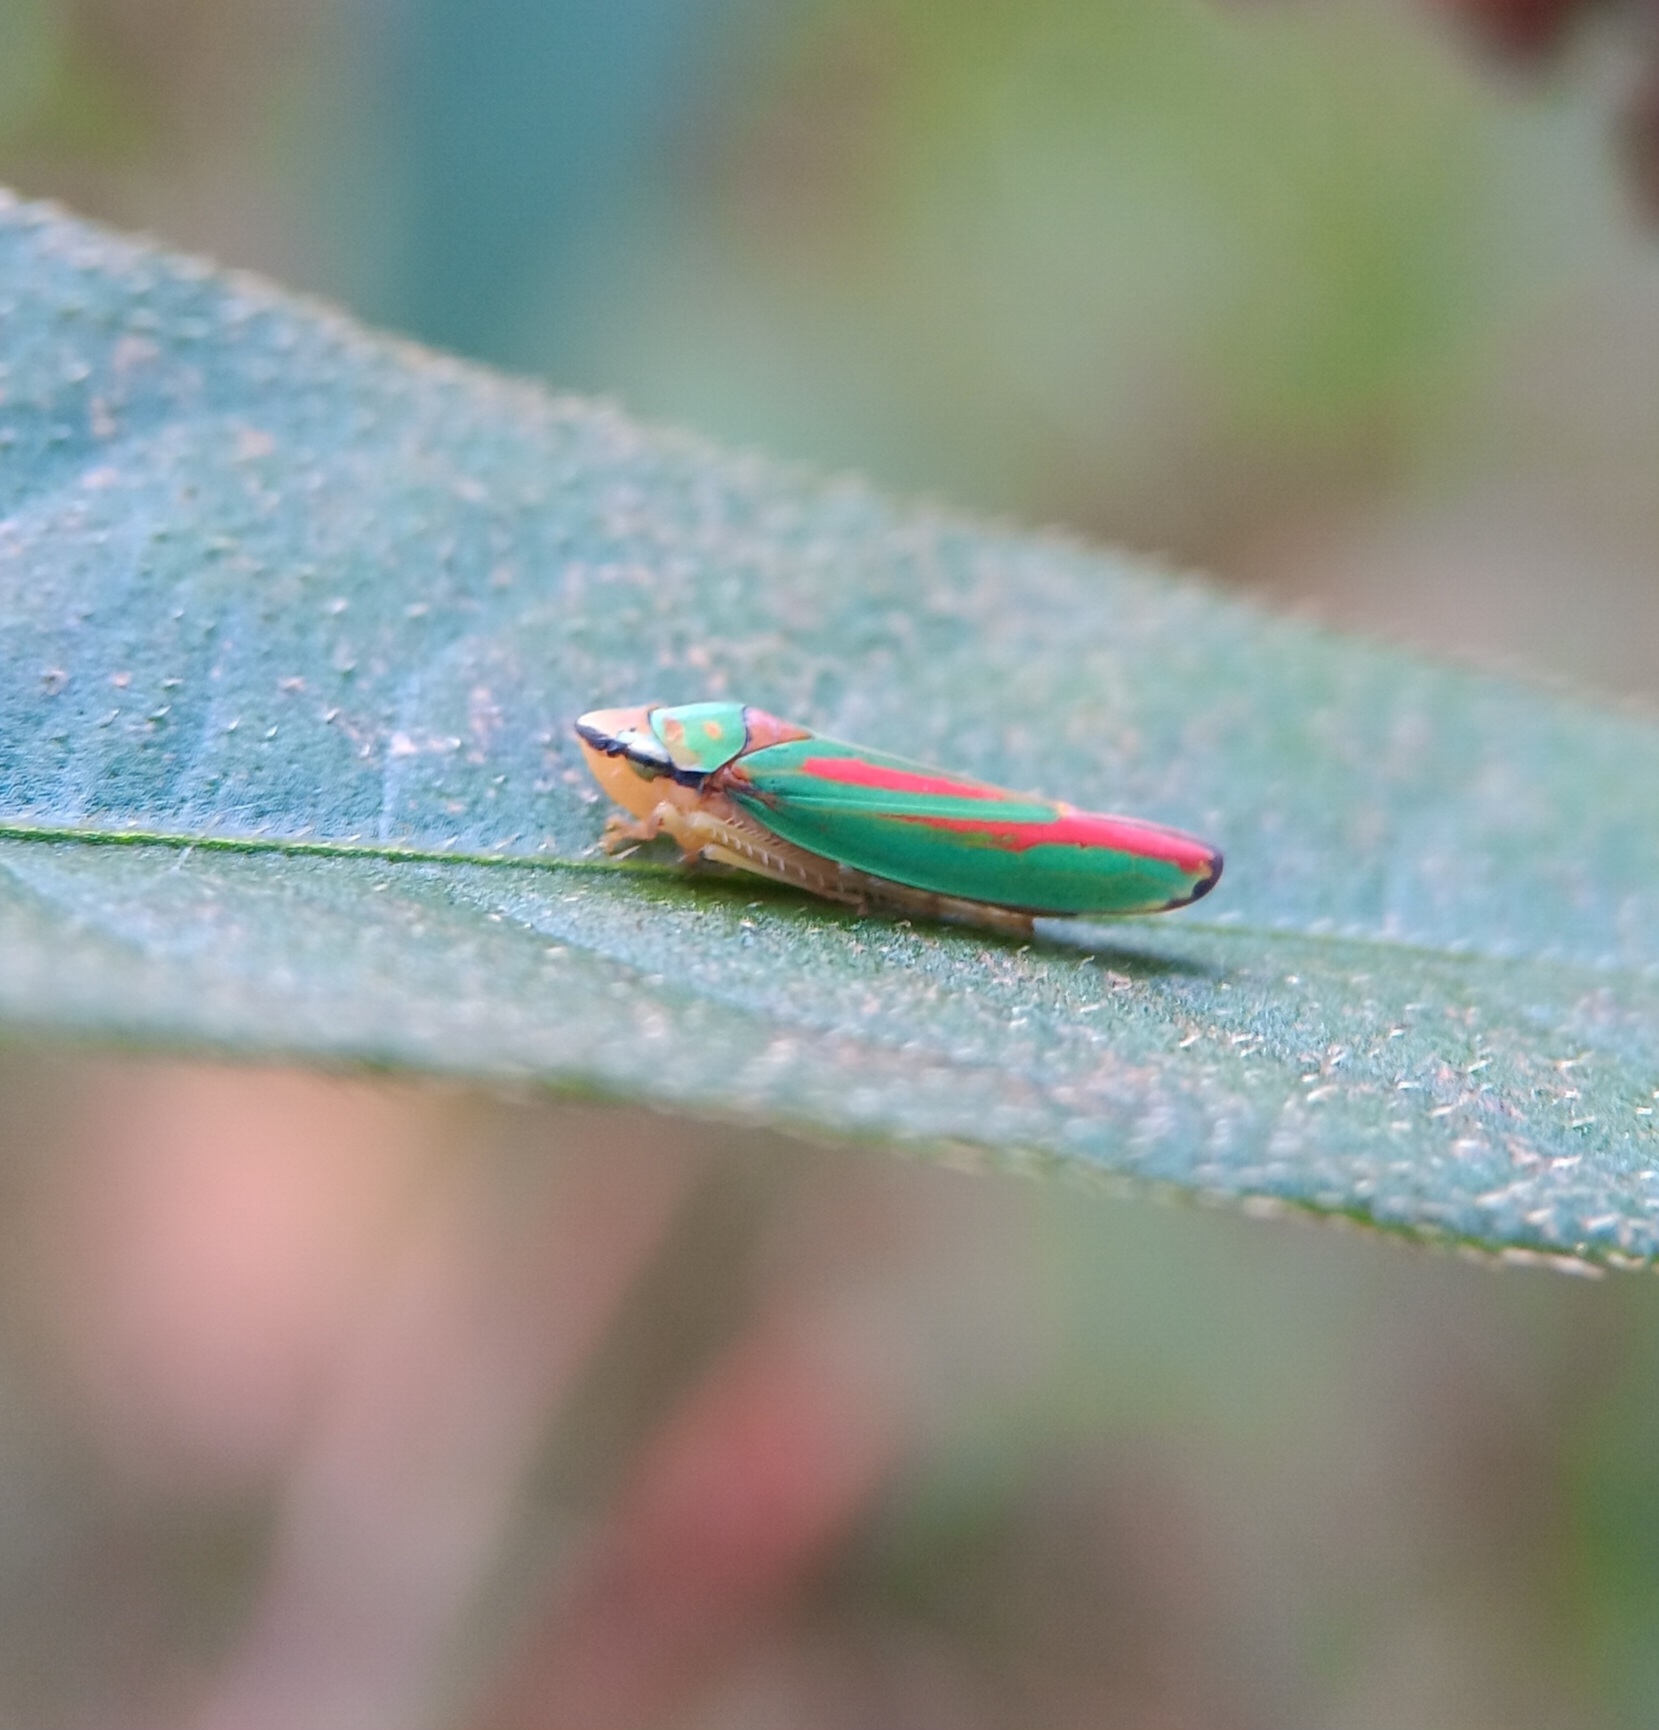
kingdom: Animalia
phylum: Arthropoda
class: Insecta
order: Hemiptera
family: Cicadellidae
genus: Graphocephala
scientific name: Graphocephala fennahi
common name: Rhododendron leafhopper
